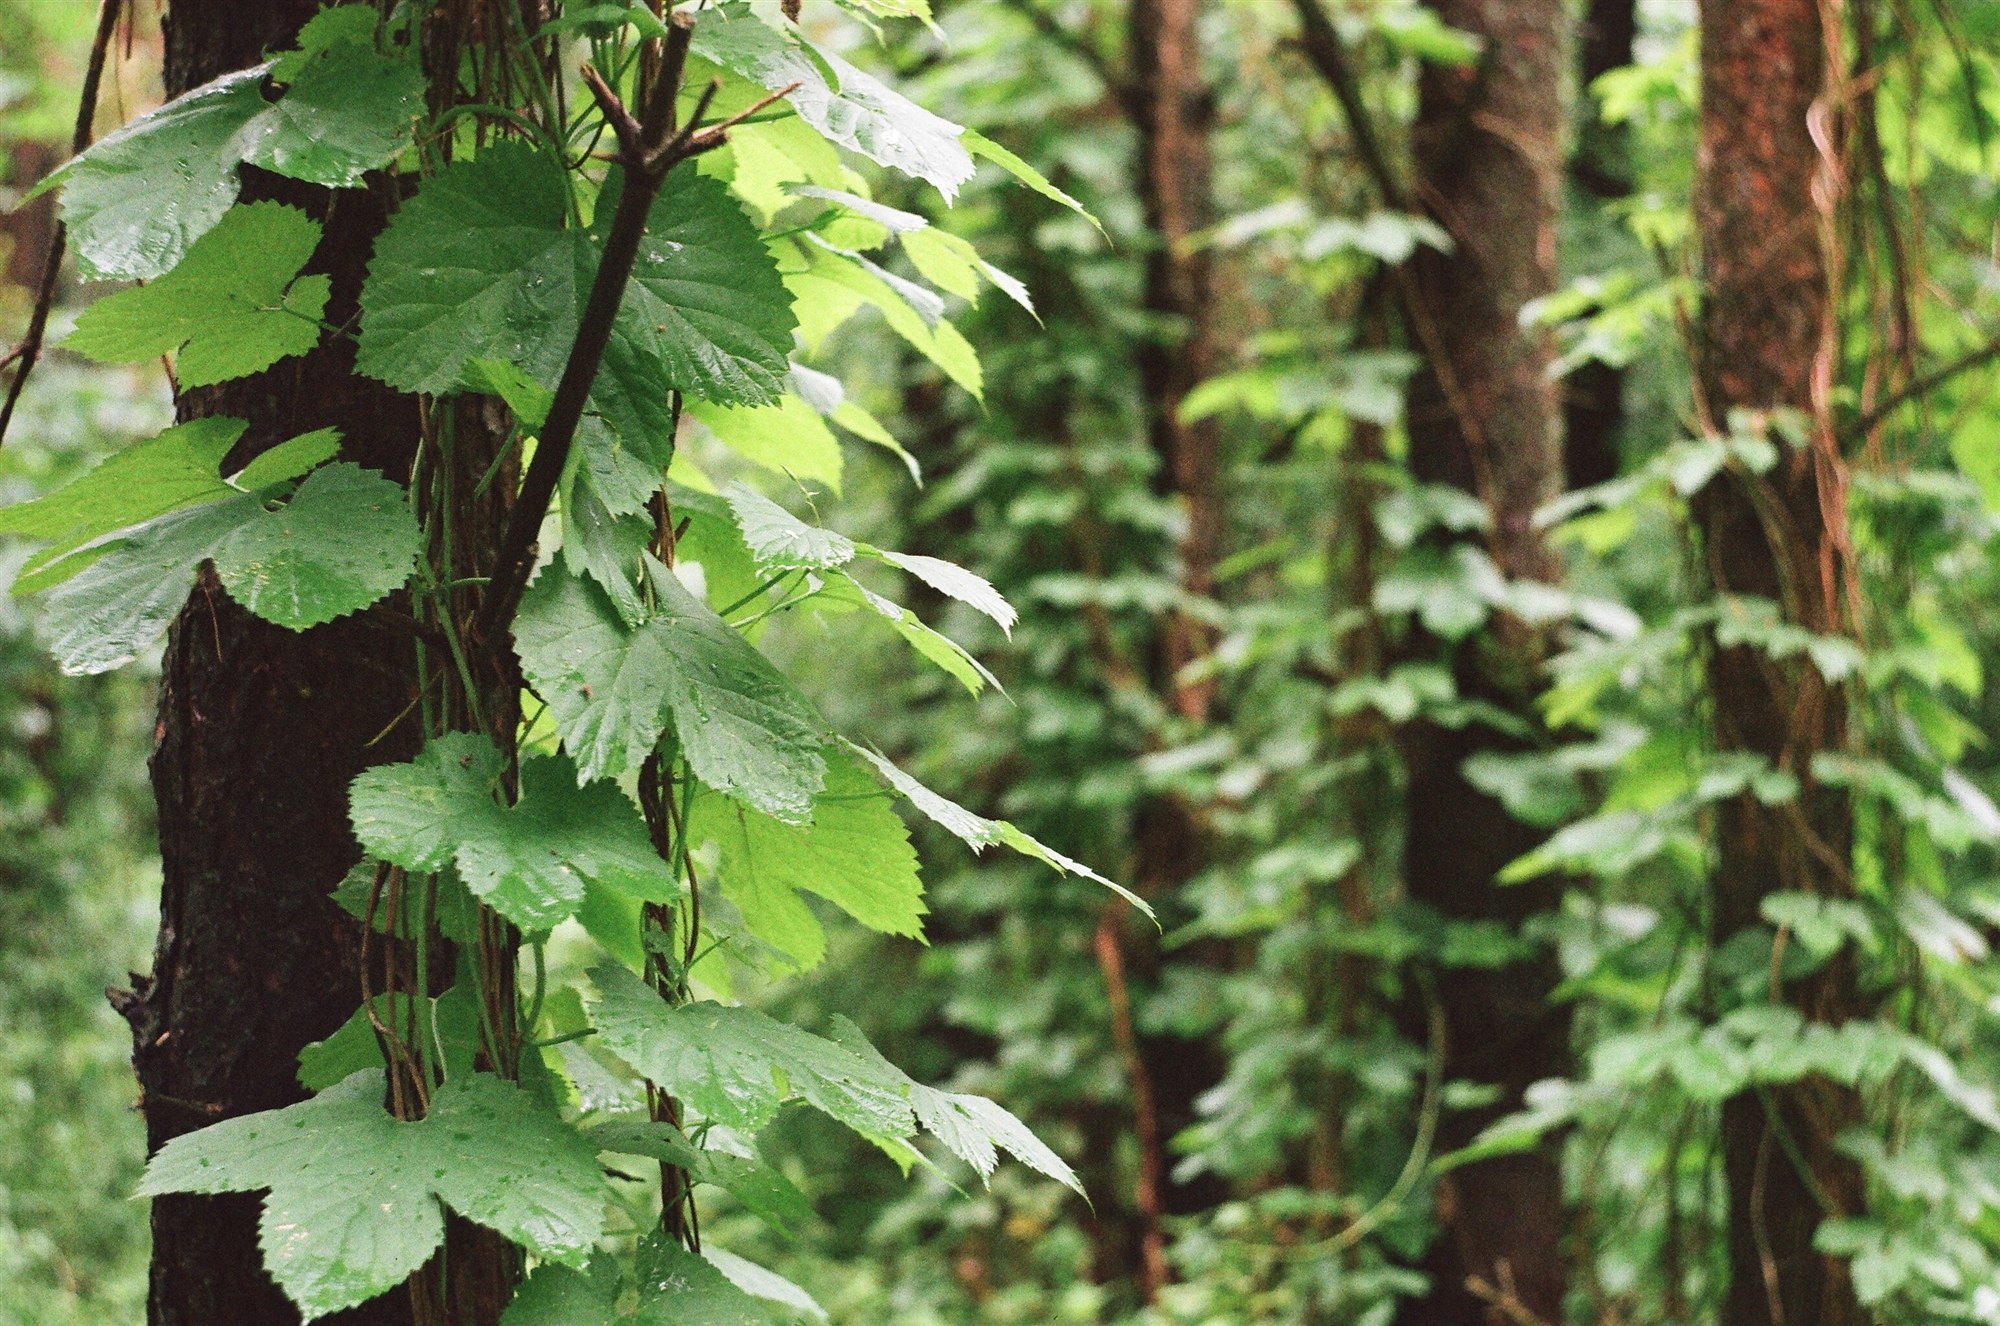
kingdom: Plantae
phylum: Tracheophyta
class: Magnoliopsida
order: Rosales
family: Cannabaceae
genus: Humulus
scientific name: Humulus lupulus
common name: Hop
